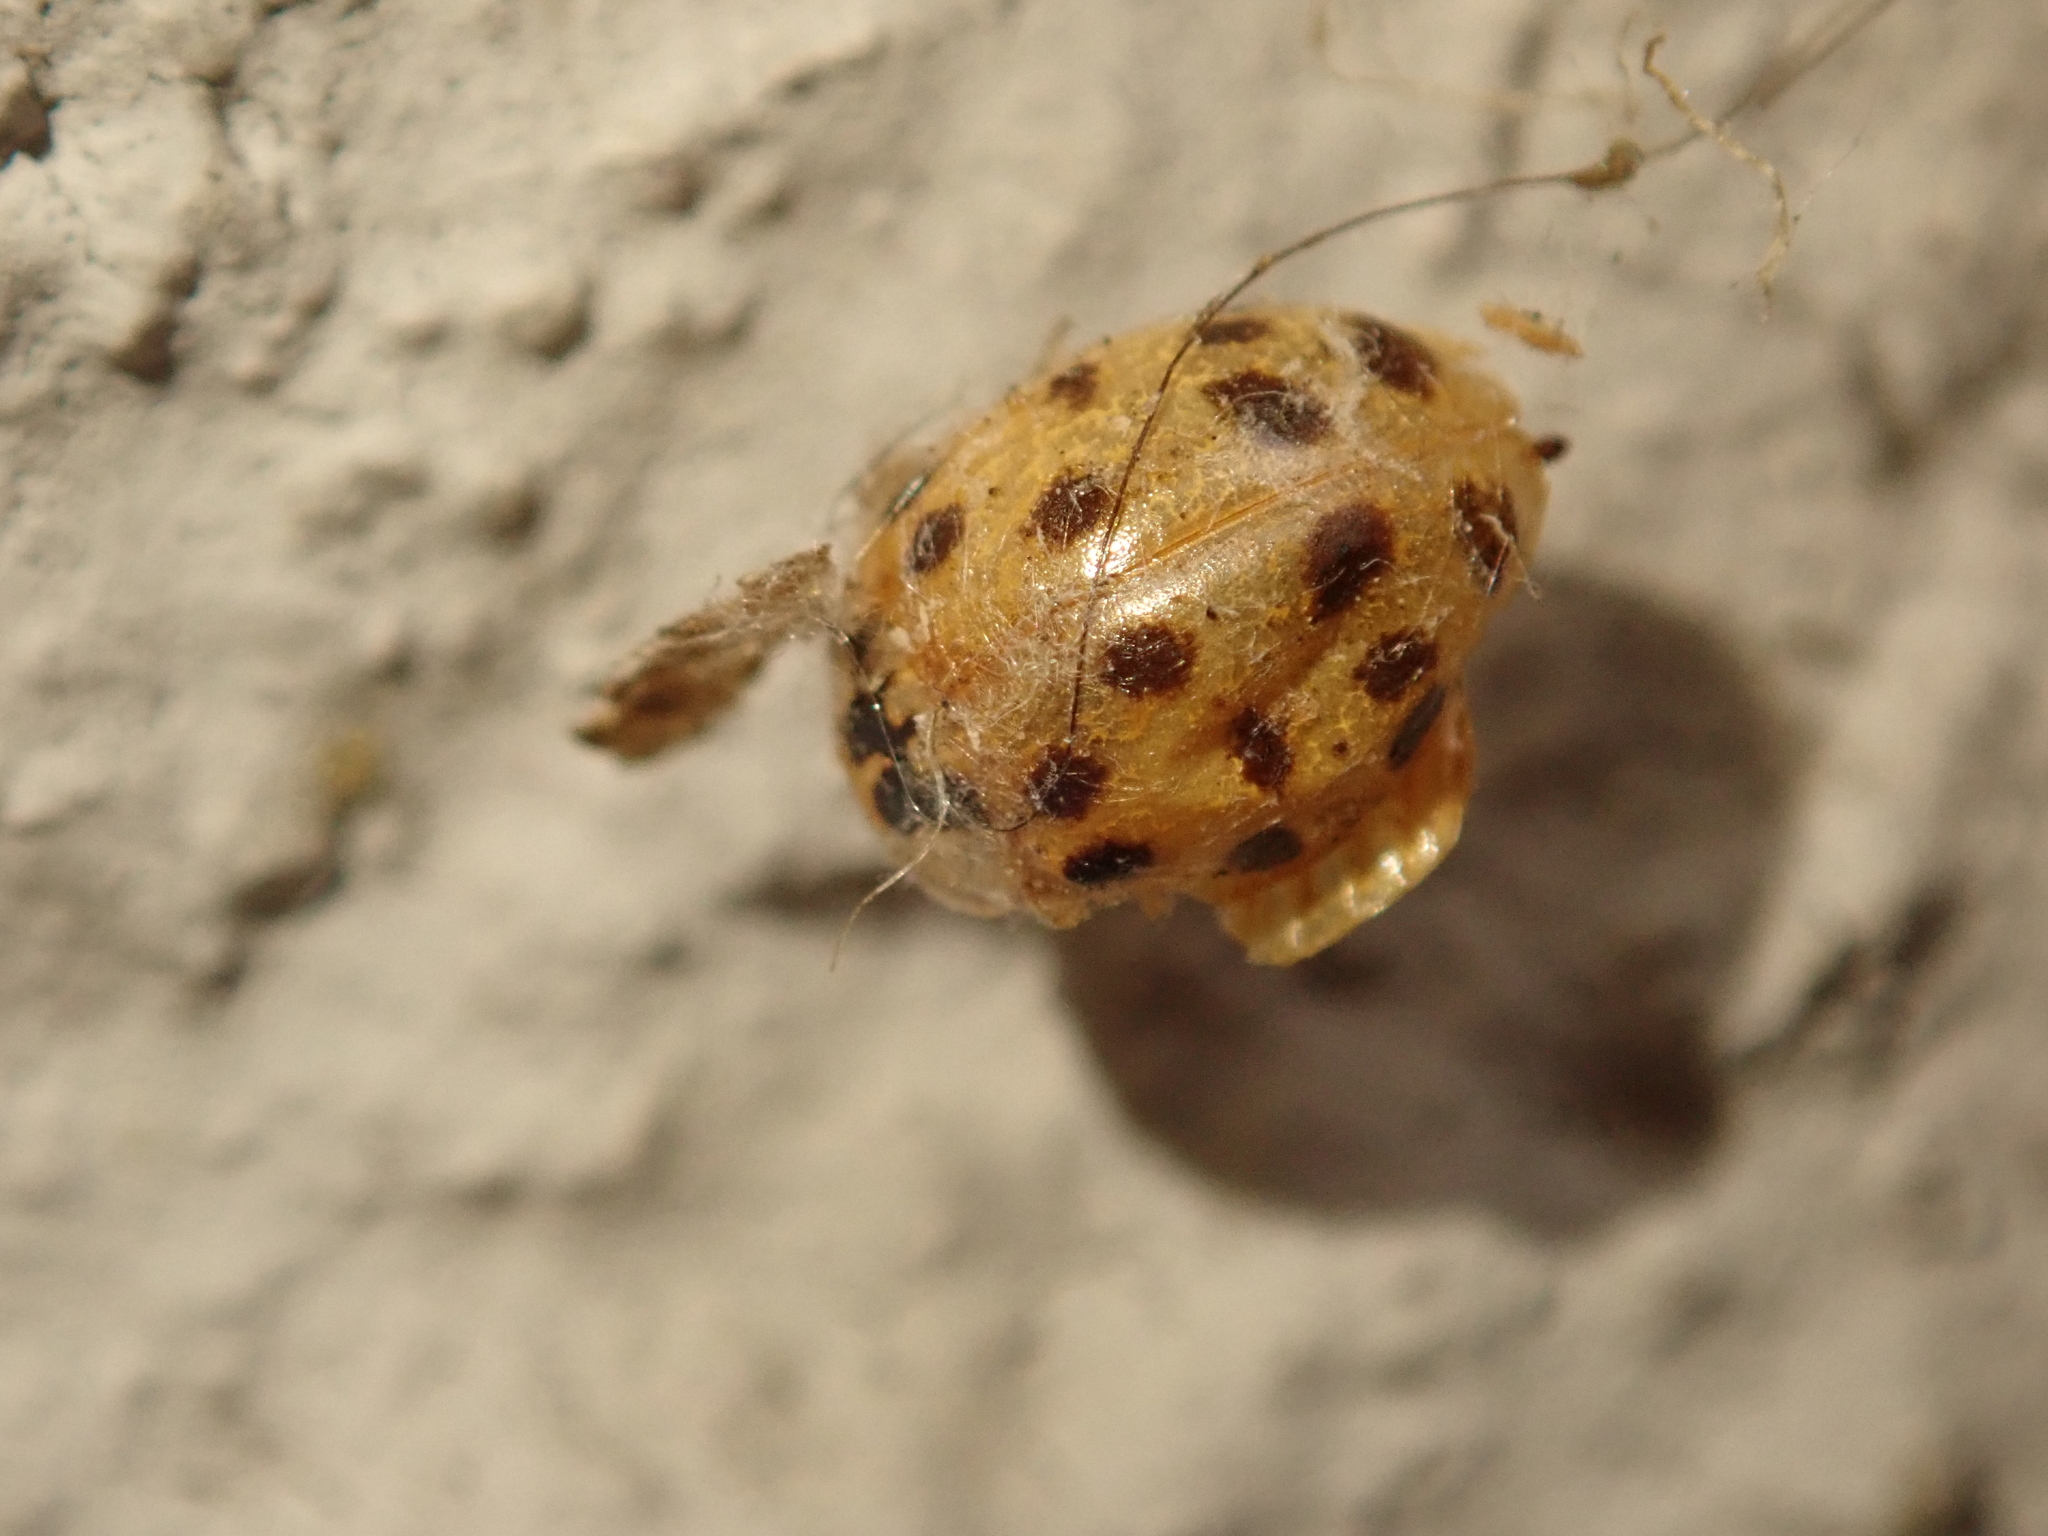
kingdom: Animalia
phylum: Arthropoda
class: Insecta
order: Coleoptera
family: Coccinellidae
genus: Harmonia
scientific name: Harmonia axyridis
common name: Harlequin ladybird
